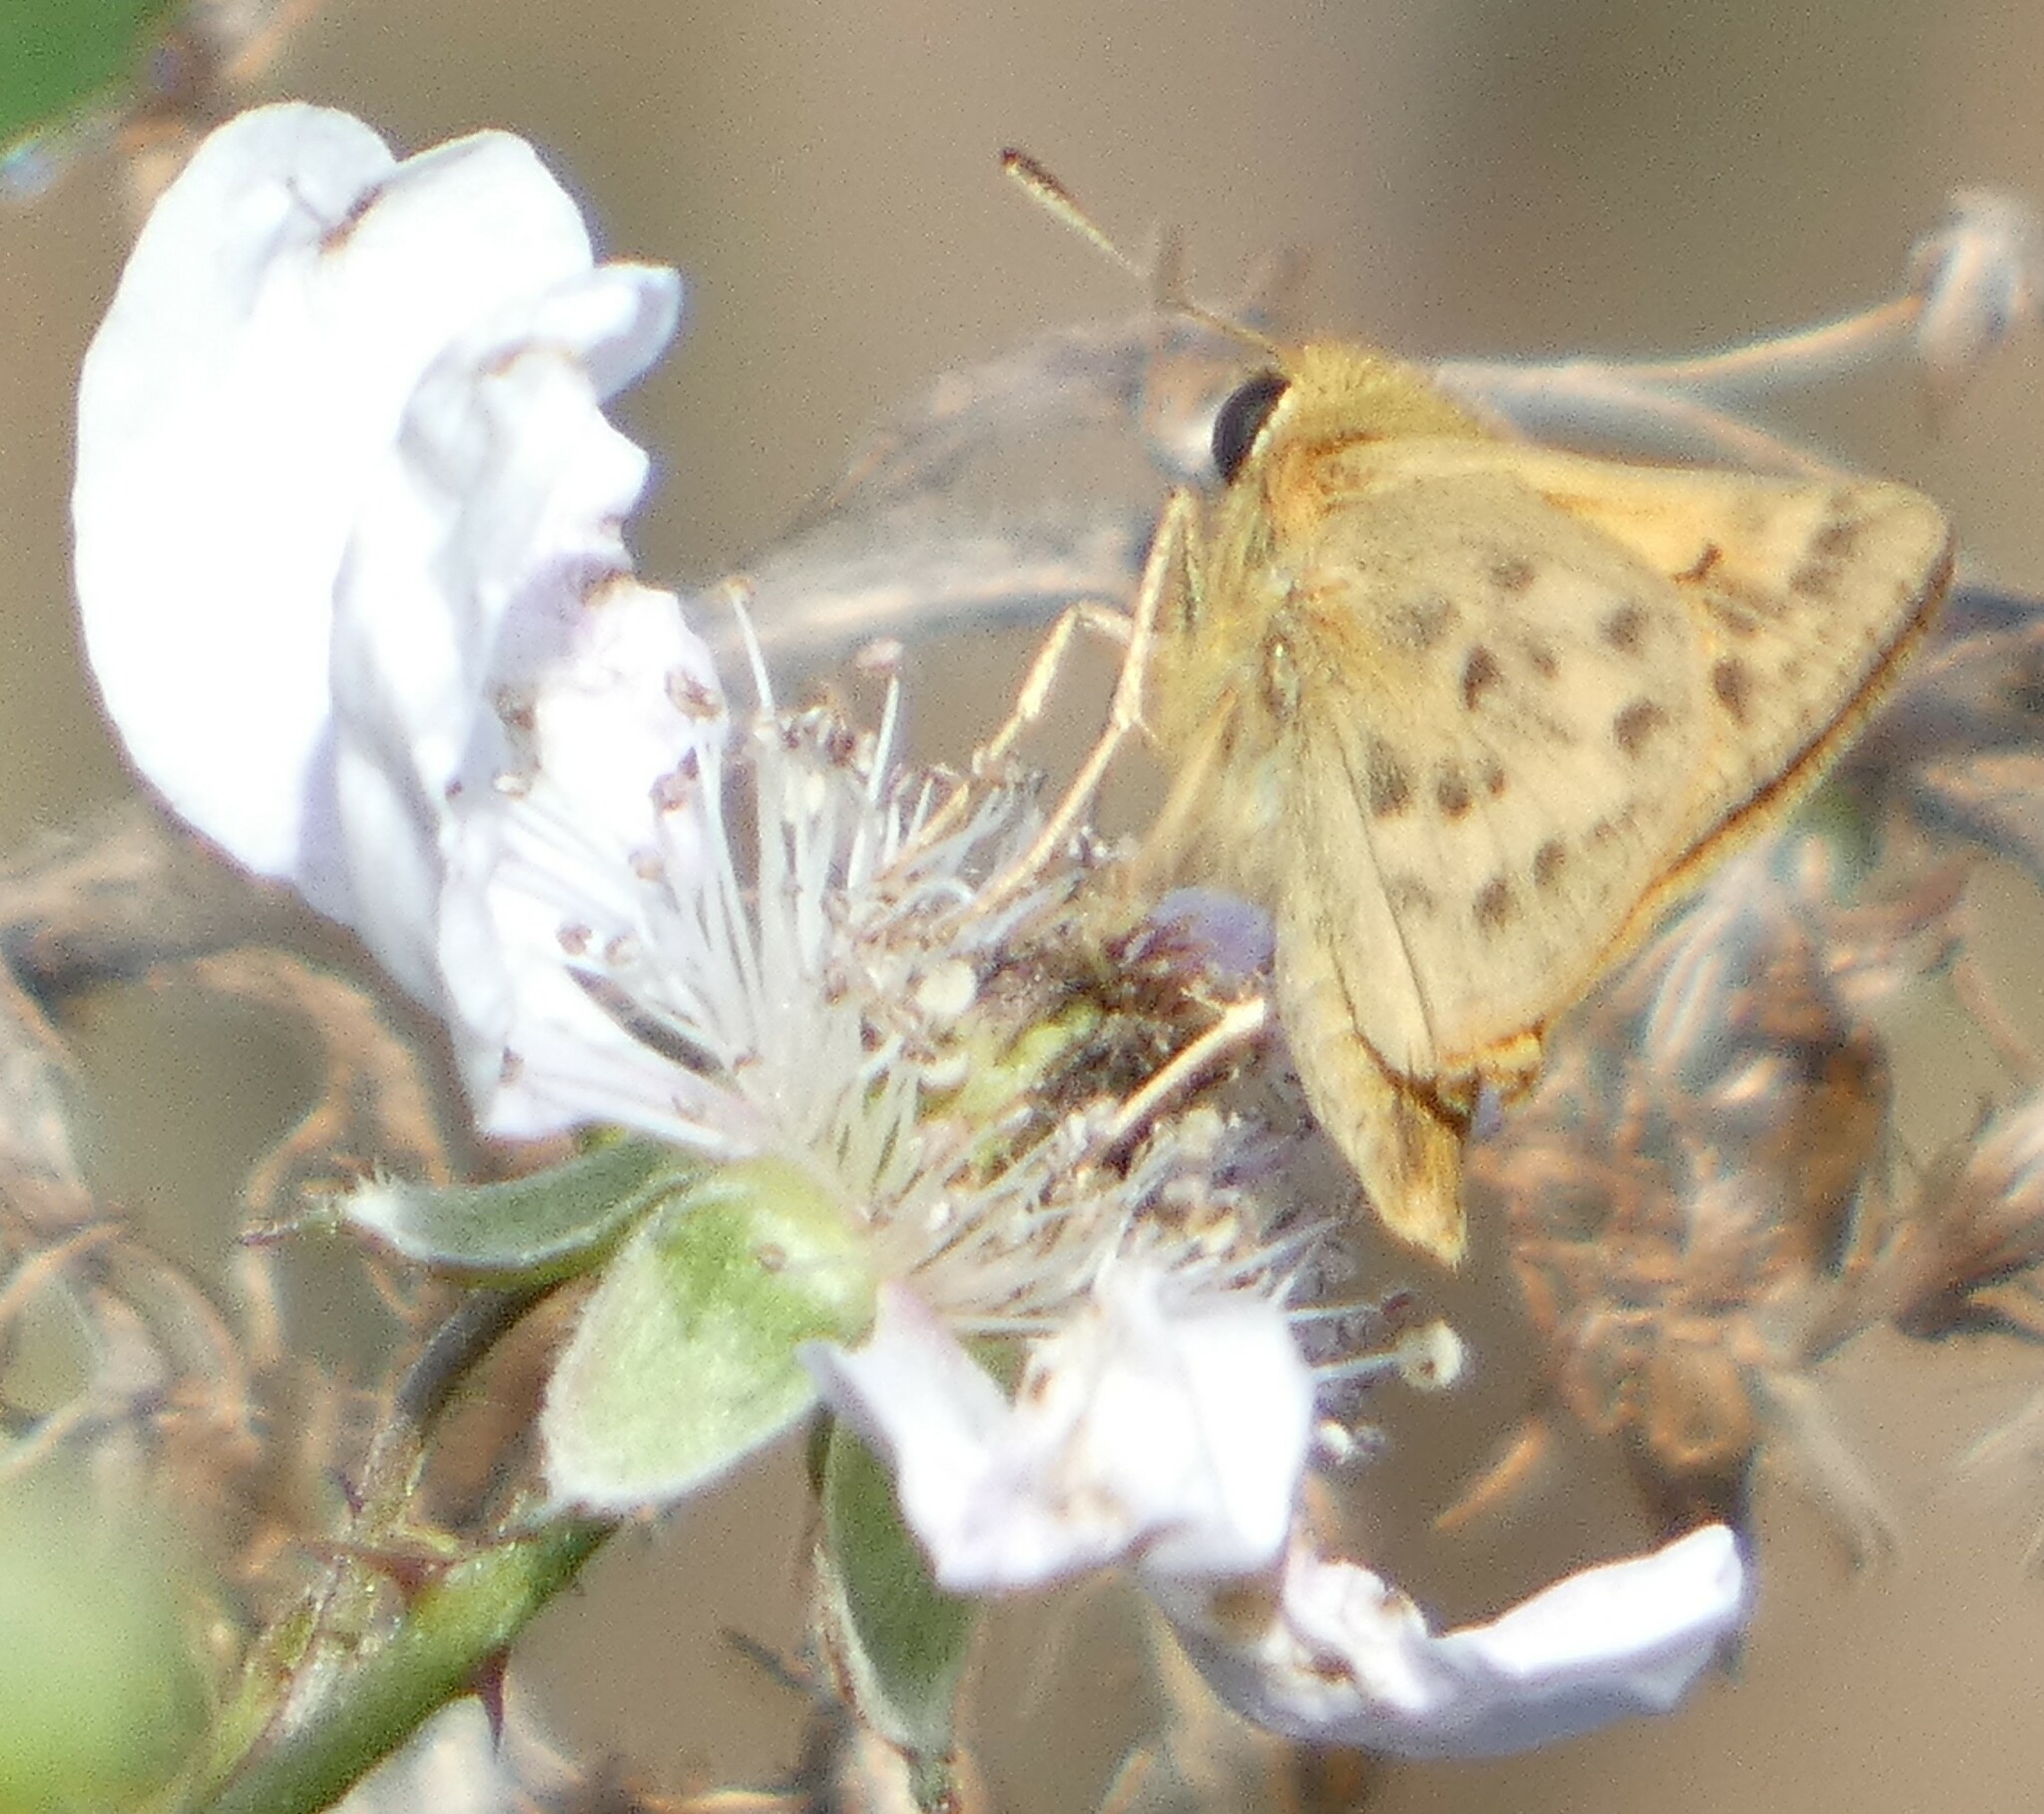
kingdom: Animalia
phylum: Arthropoda
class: Insecta
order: Lepidoptera
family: Hesperiidae
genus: Hylephila
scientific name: Hylephila phyleus
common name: Fiery skipper
